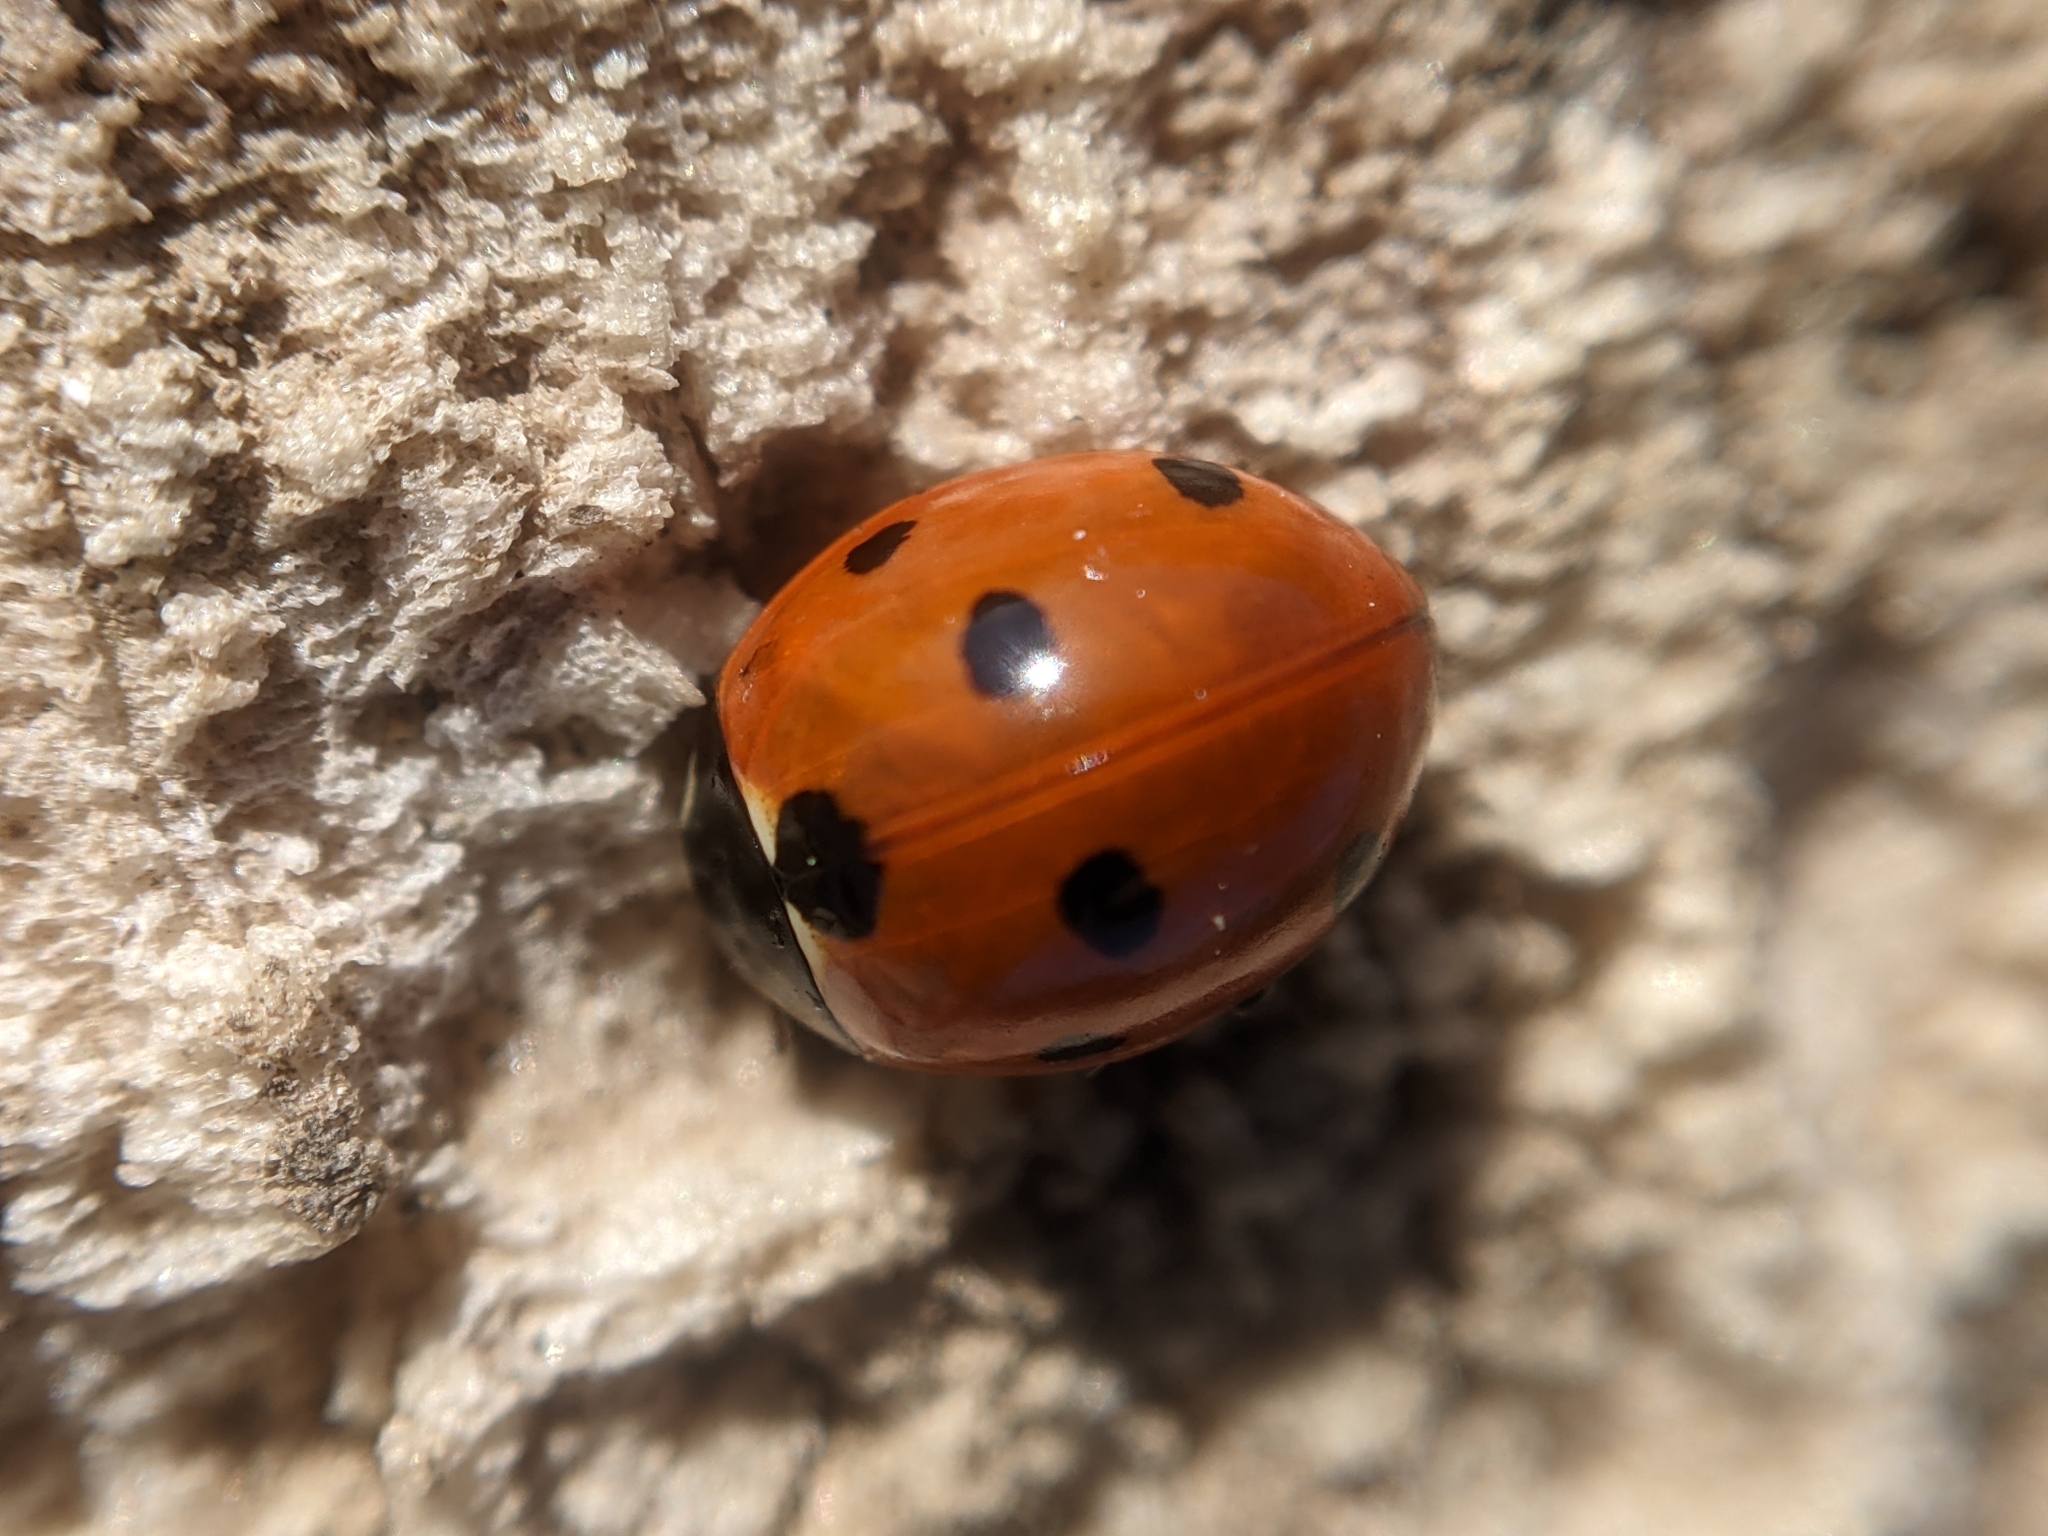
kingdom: Animalia
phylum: Arthropoda
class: Insecta
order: Coleoptera
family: Coccinellidae
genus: Coccinella
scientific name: Coccinella septempunctata
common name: Sevenspotted lady beetle
